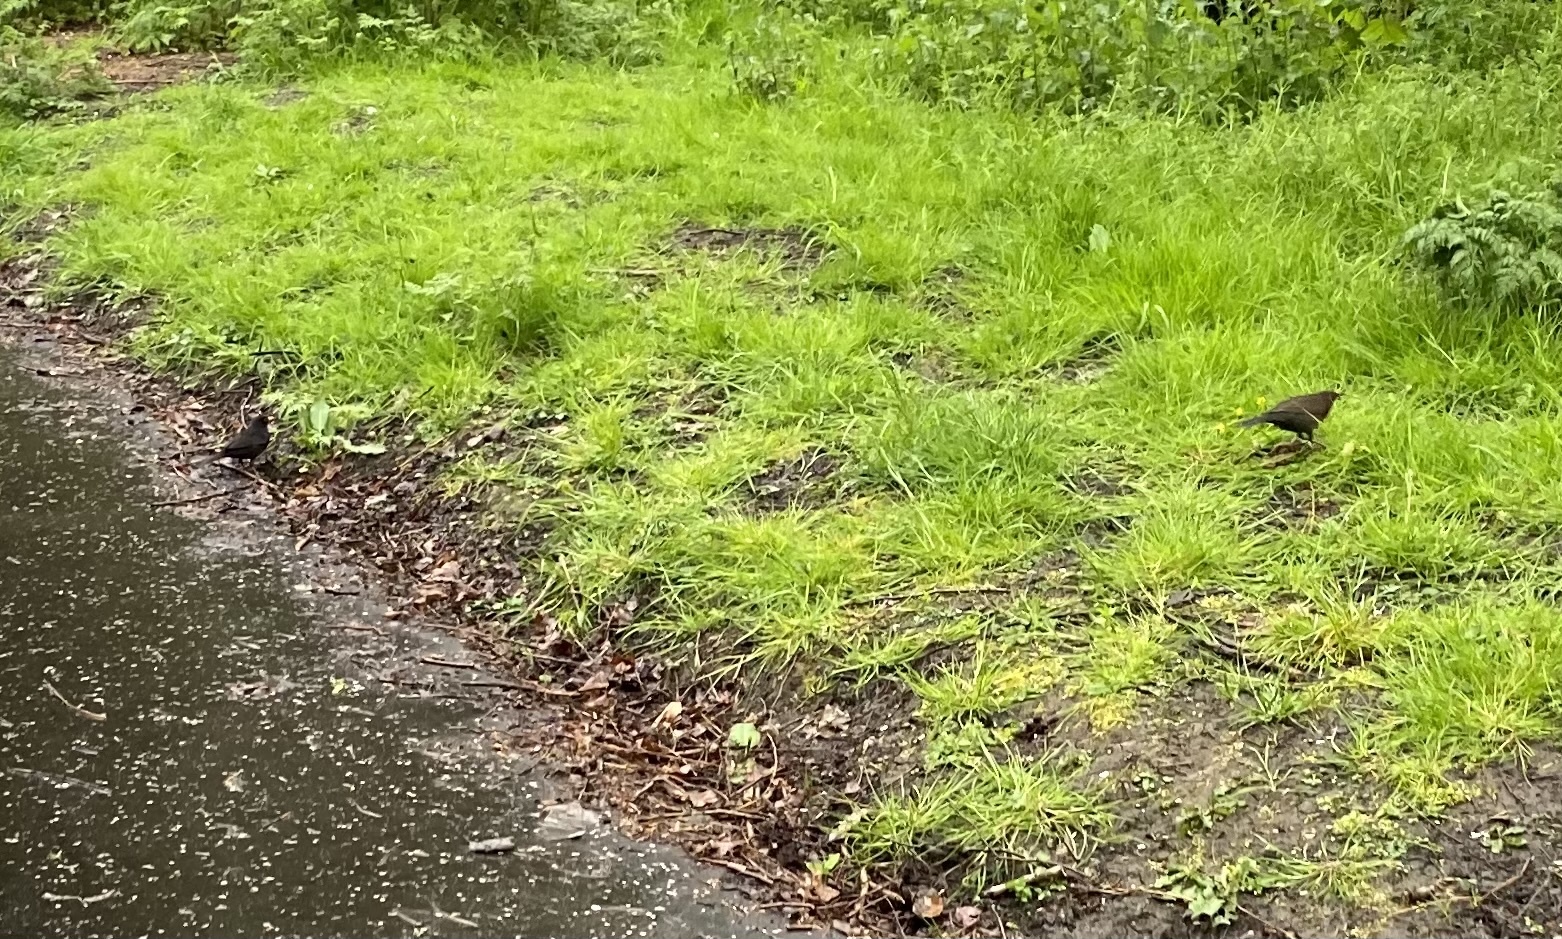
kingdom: Animalia
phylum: Chordata
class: Aves
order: Passeriformes
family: Turdidae
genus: Turdus
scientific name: Turdus merula
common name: Common blackbird
